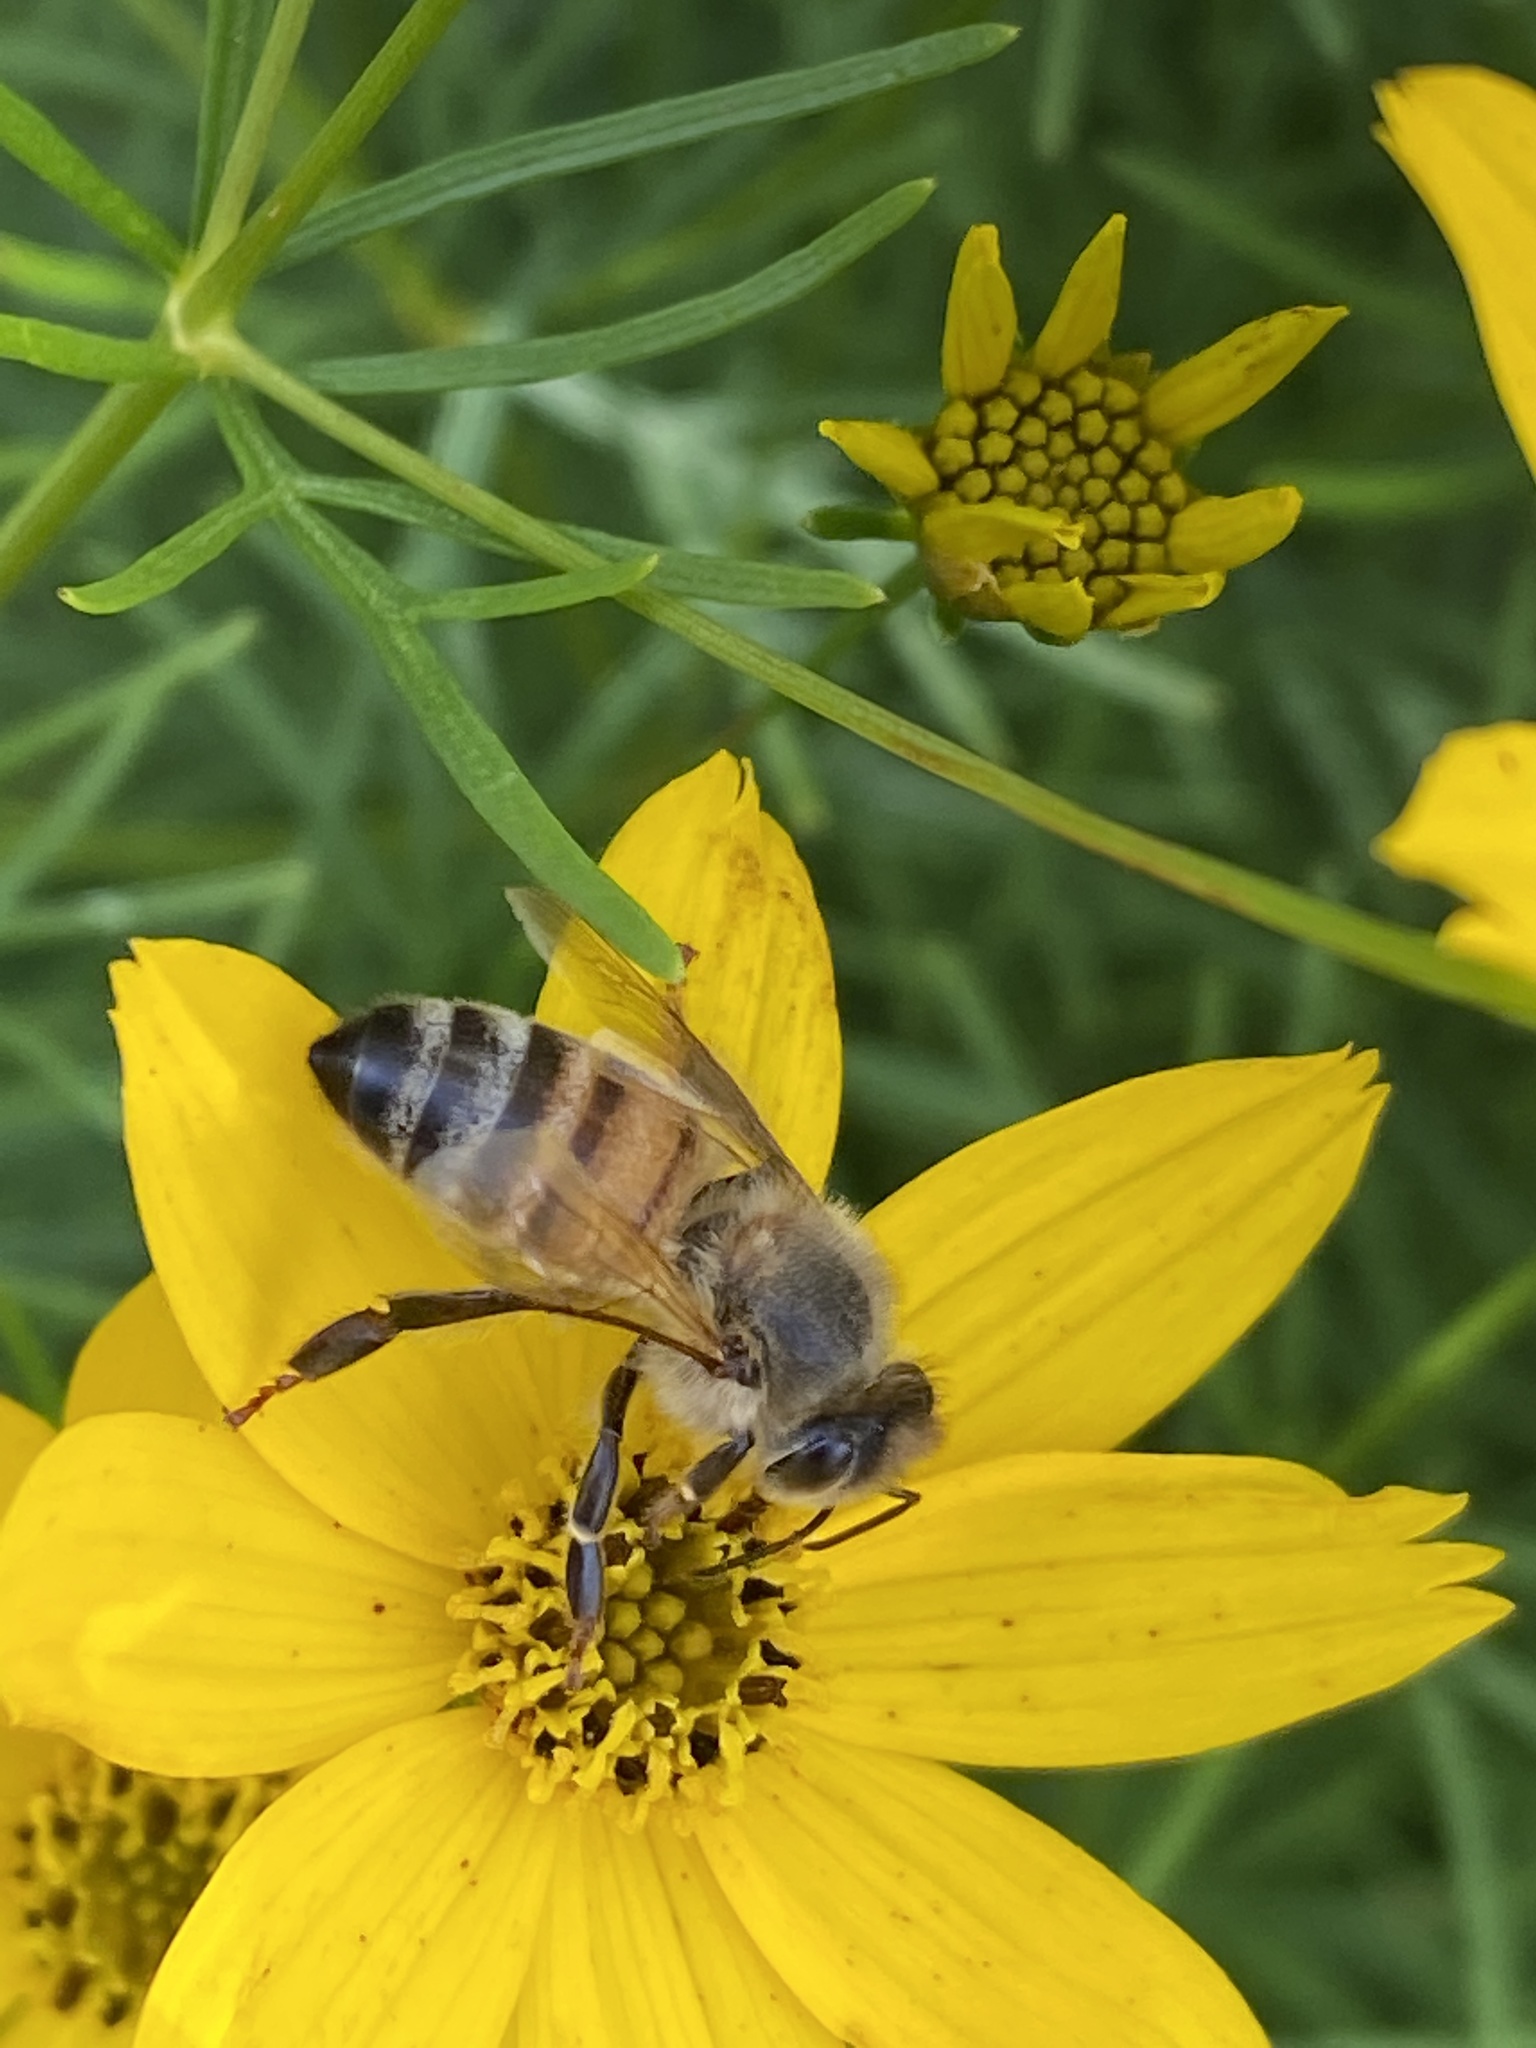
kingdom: Animalia
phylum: Arthropoda
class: Insecta
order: Hymenoptera
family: Apidae
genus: Apis
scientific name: Apis mellifera
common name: Honey bee
